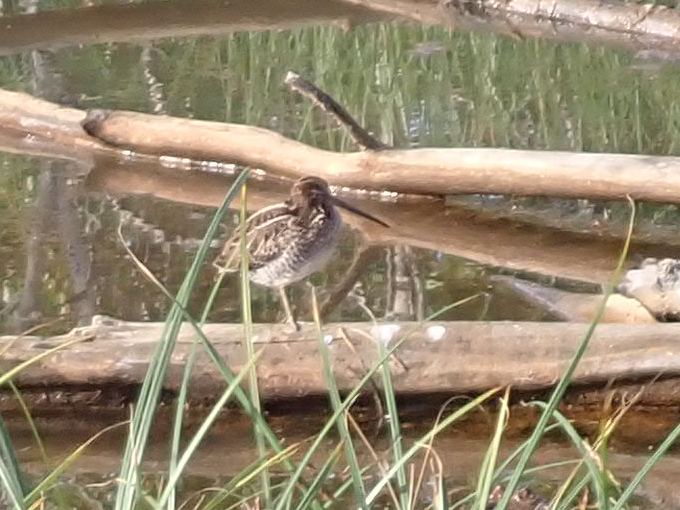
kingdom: Animalia
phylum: Chordata
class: Aves
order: Charadriiformes
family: Scolopacidae
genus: Gallinago
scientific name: Gallinago delicata
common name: Wilson's snipe
